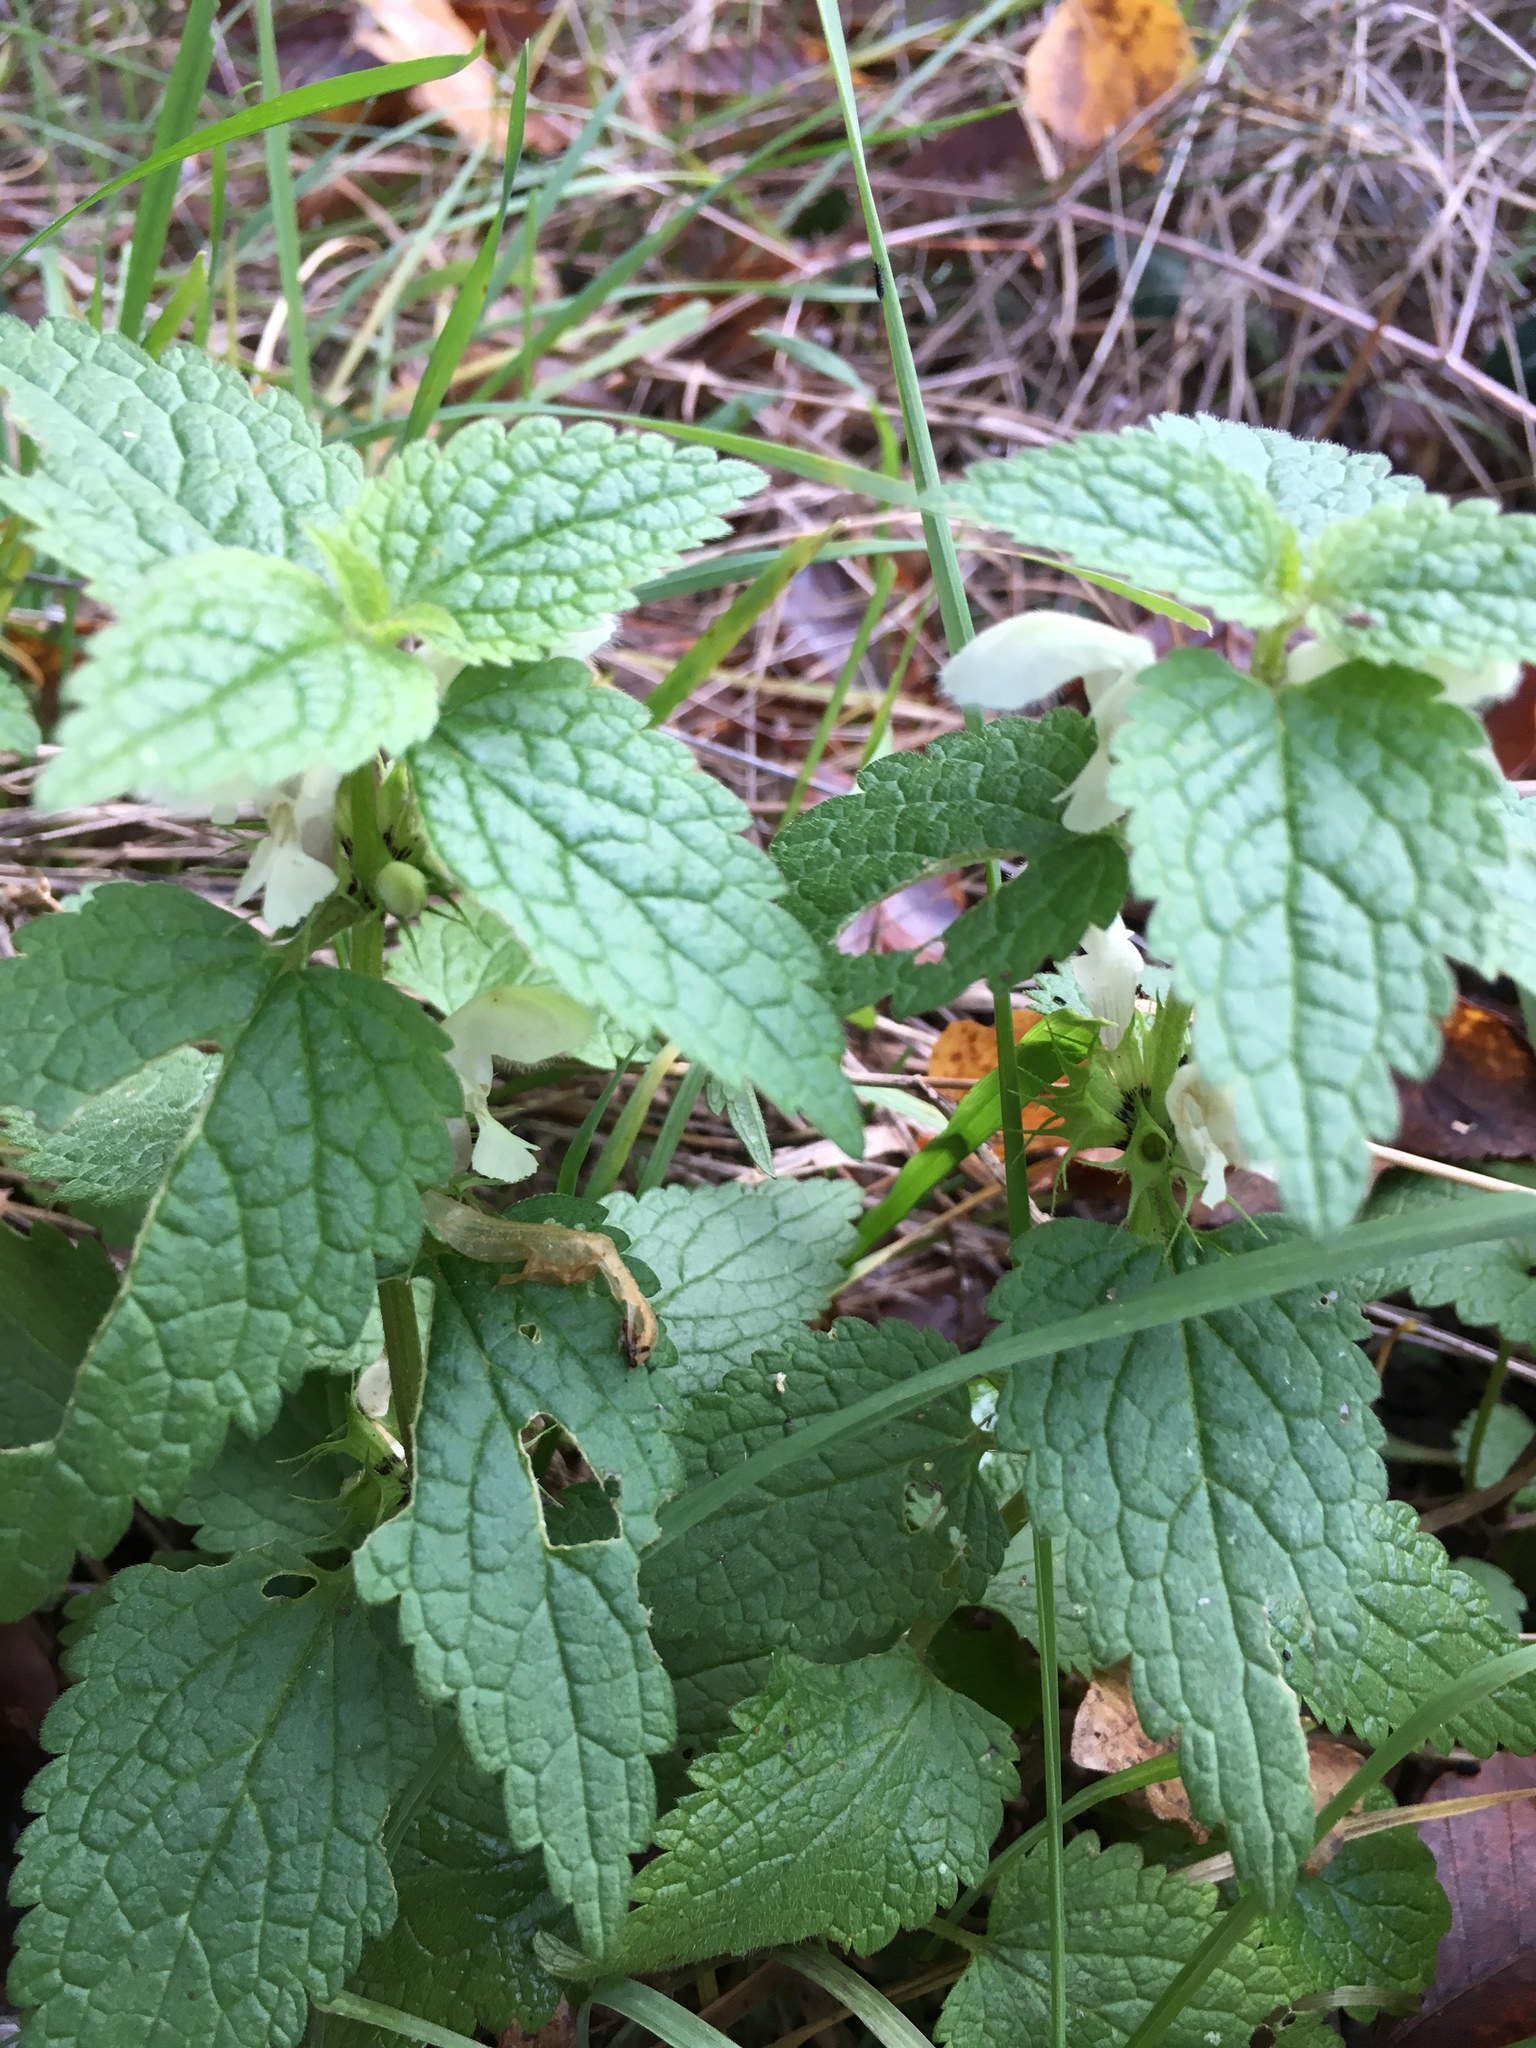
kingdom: Plantae
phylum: Tracheophyta
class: Magnoliopsida
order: Lamiales
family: Lamiaceae
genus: Lamium
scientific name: Lamium album
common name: White dead-nettle
